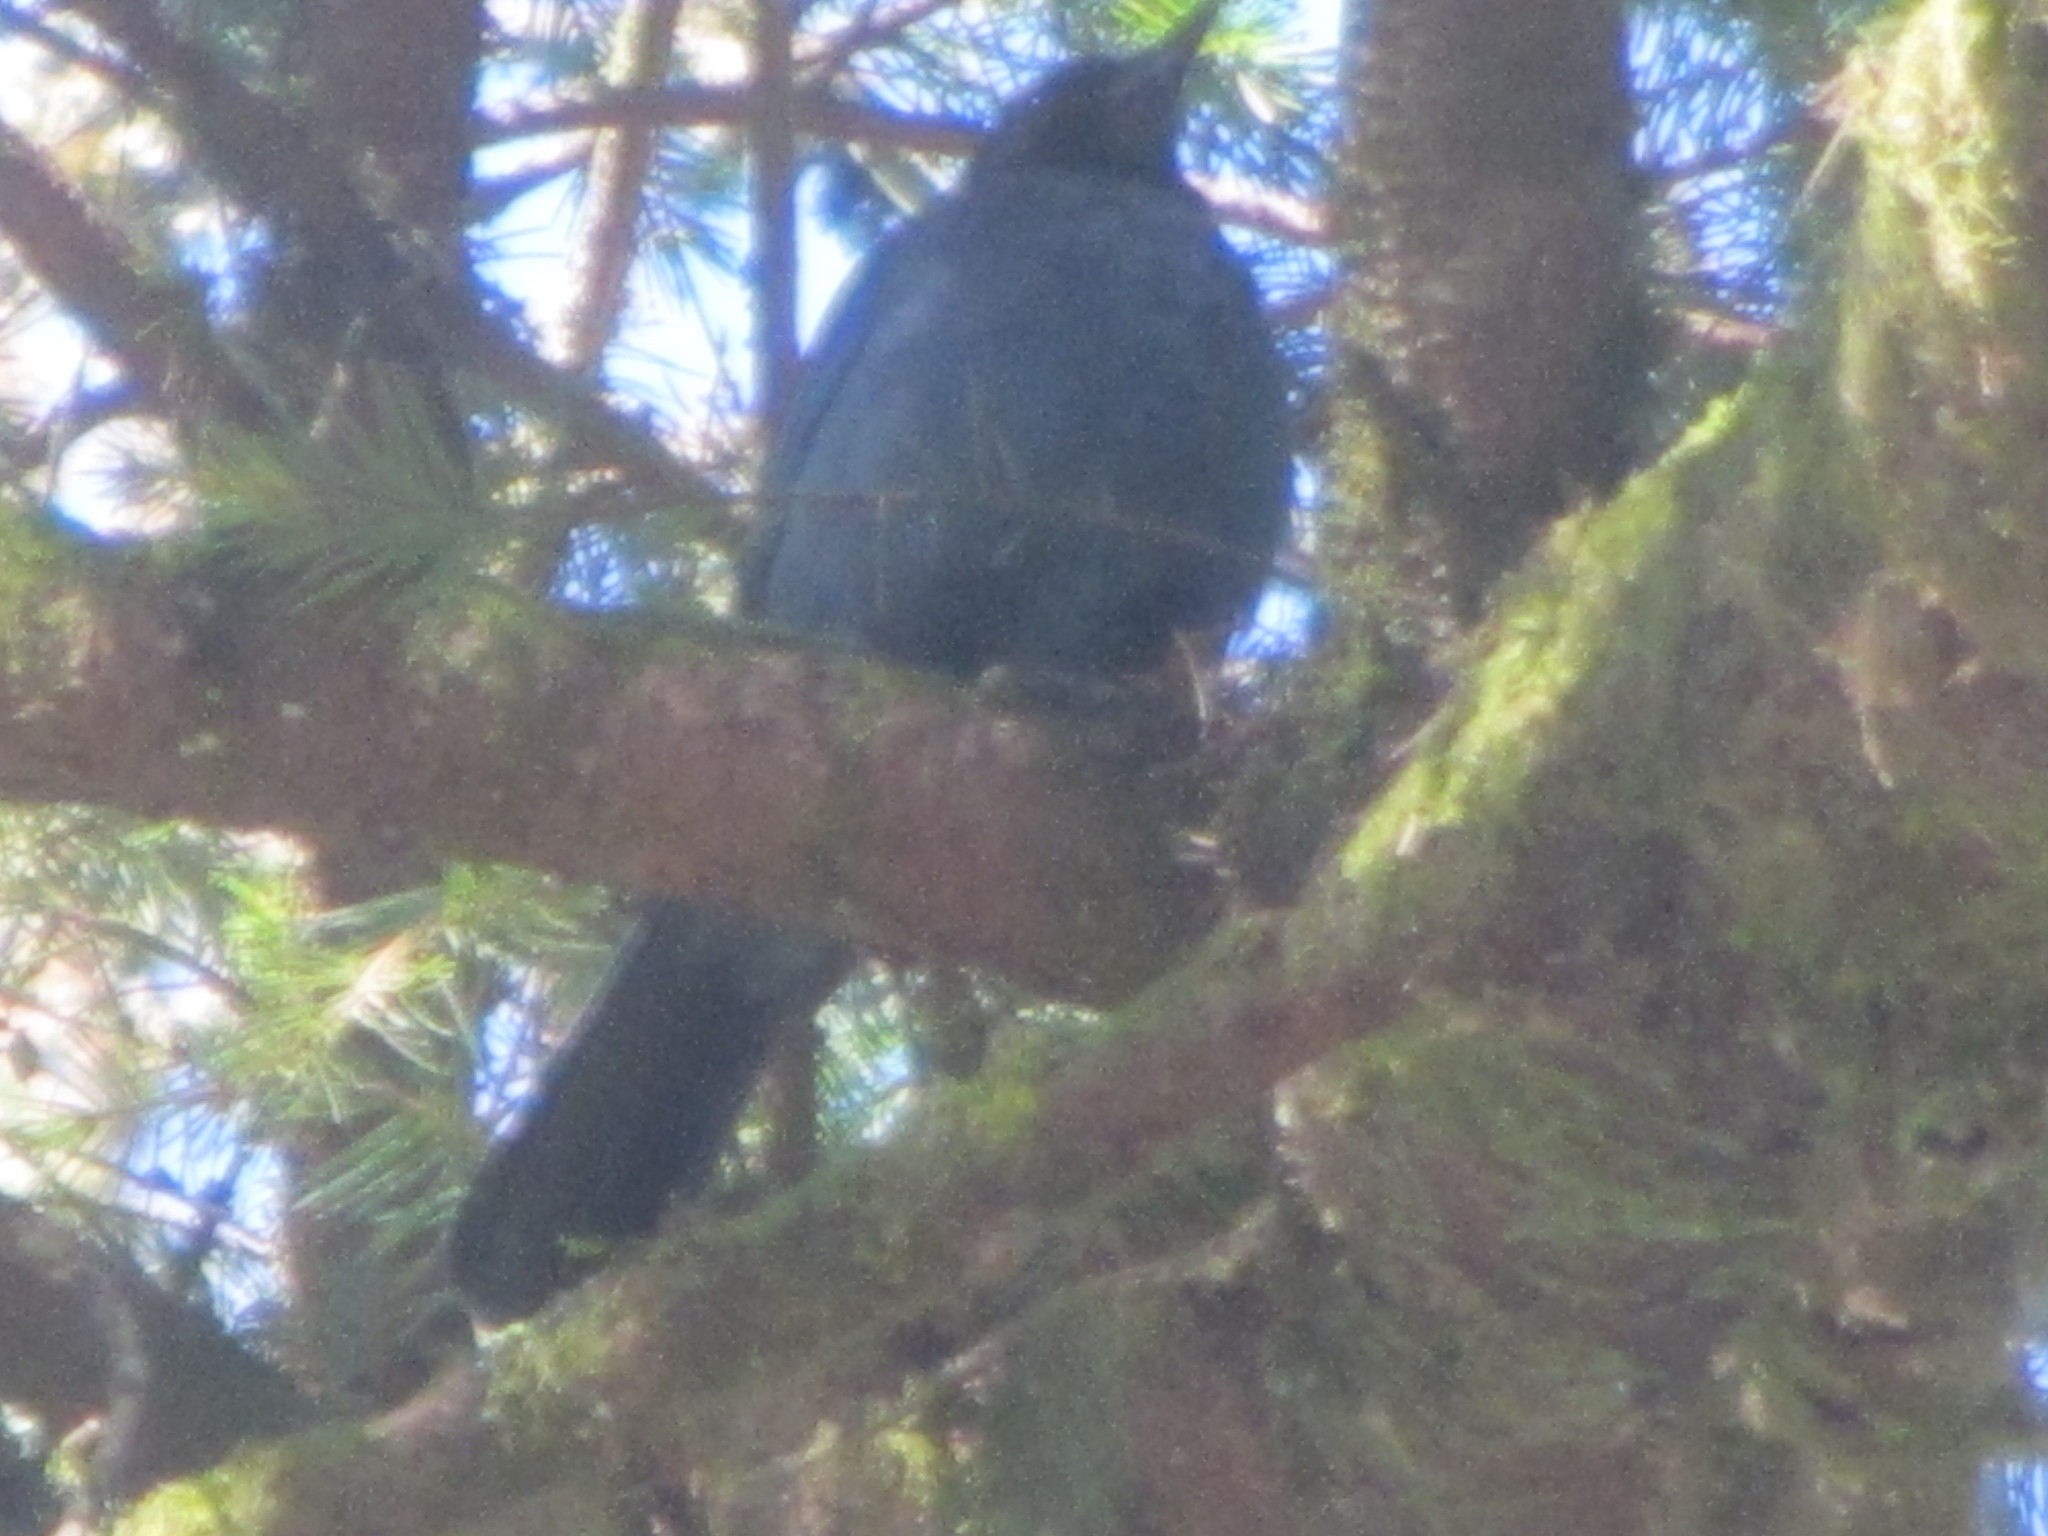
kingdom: Animalia
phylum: Chordata
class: Aves
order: Passeriformes
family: Corvidae
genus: Cyanocitta
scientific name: Cyanocitta stelleri
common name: Steller's jay
